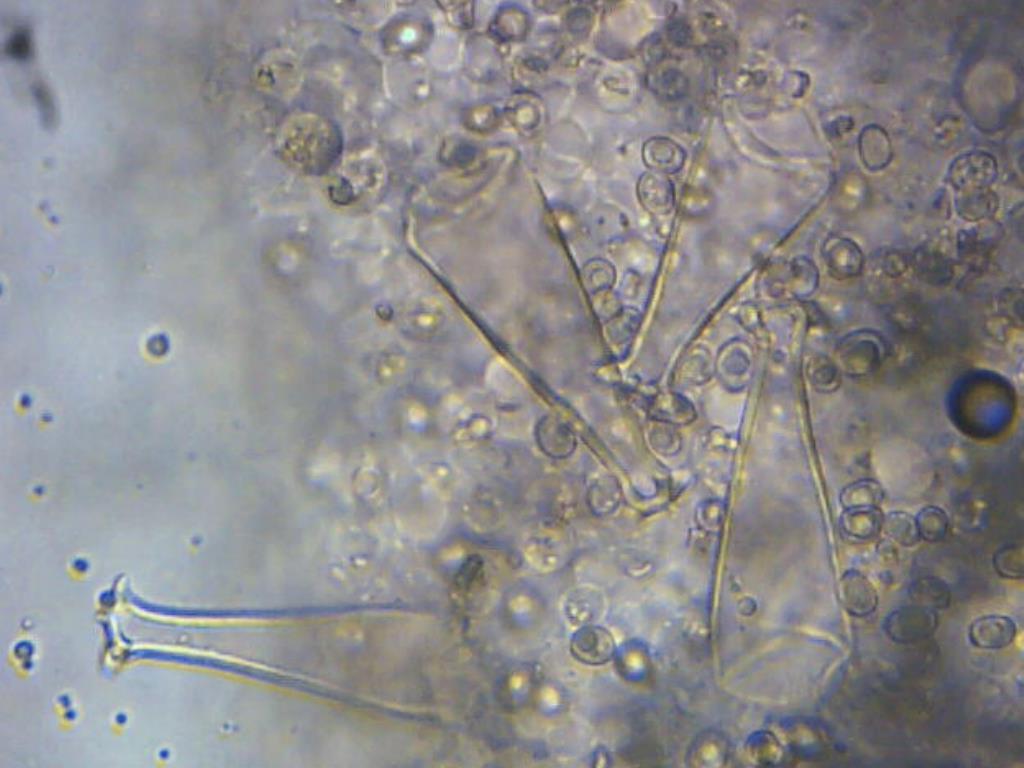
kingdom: Fungi
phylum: Basidiomycota
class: Agaricomycetes
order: Agaricales
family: Pluteaceae
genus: Pluteus
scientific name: Pluteus cervinus
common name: Deer shield
